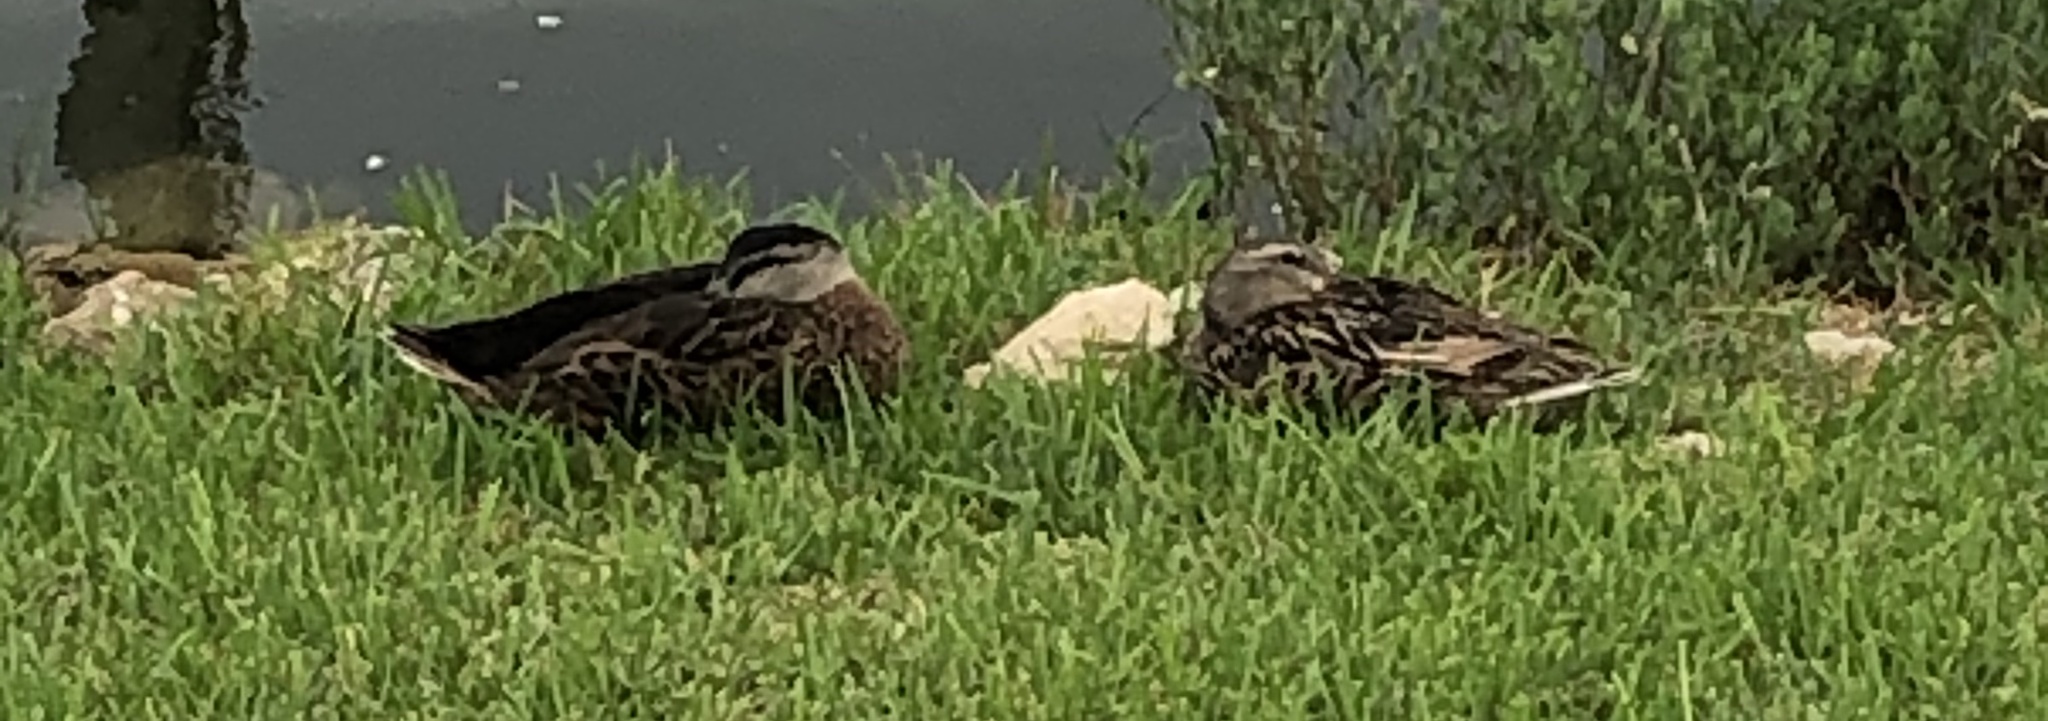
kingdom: Animalia
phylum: Chordata
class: Aves
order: Anseriformes
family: Anatidae
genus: Anas
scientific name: Anas fulvigula
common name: Mottled duck
